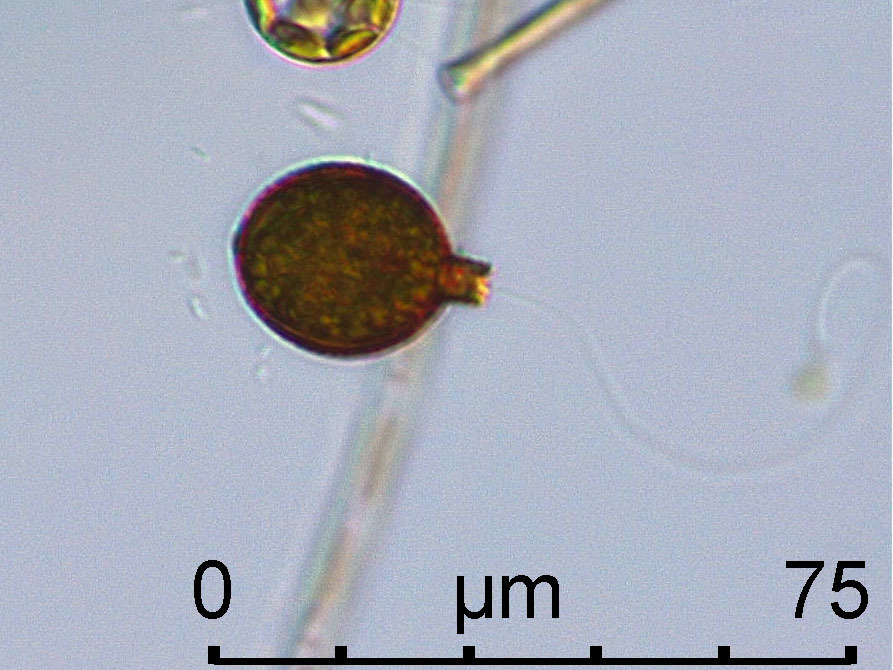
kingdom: Protozoa
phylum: Euglenozoa
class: Euglenoidea
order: Euglenida
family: Euglenaceae
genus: Trachelomonas
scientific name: Trachelomonas planctonica
